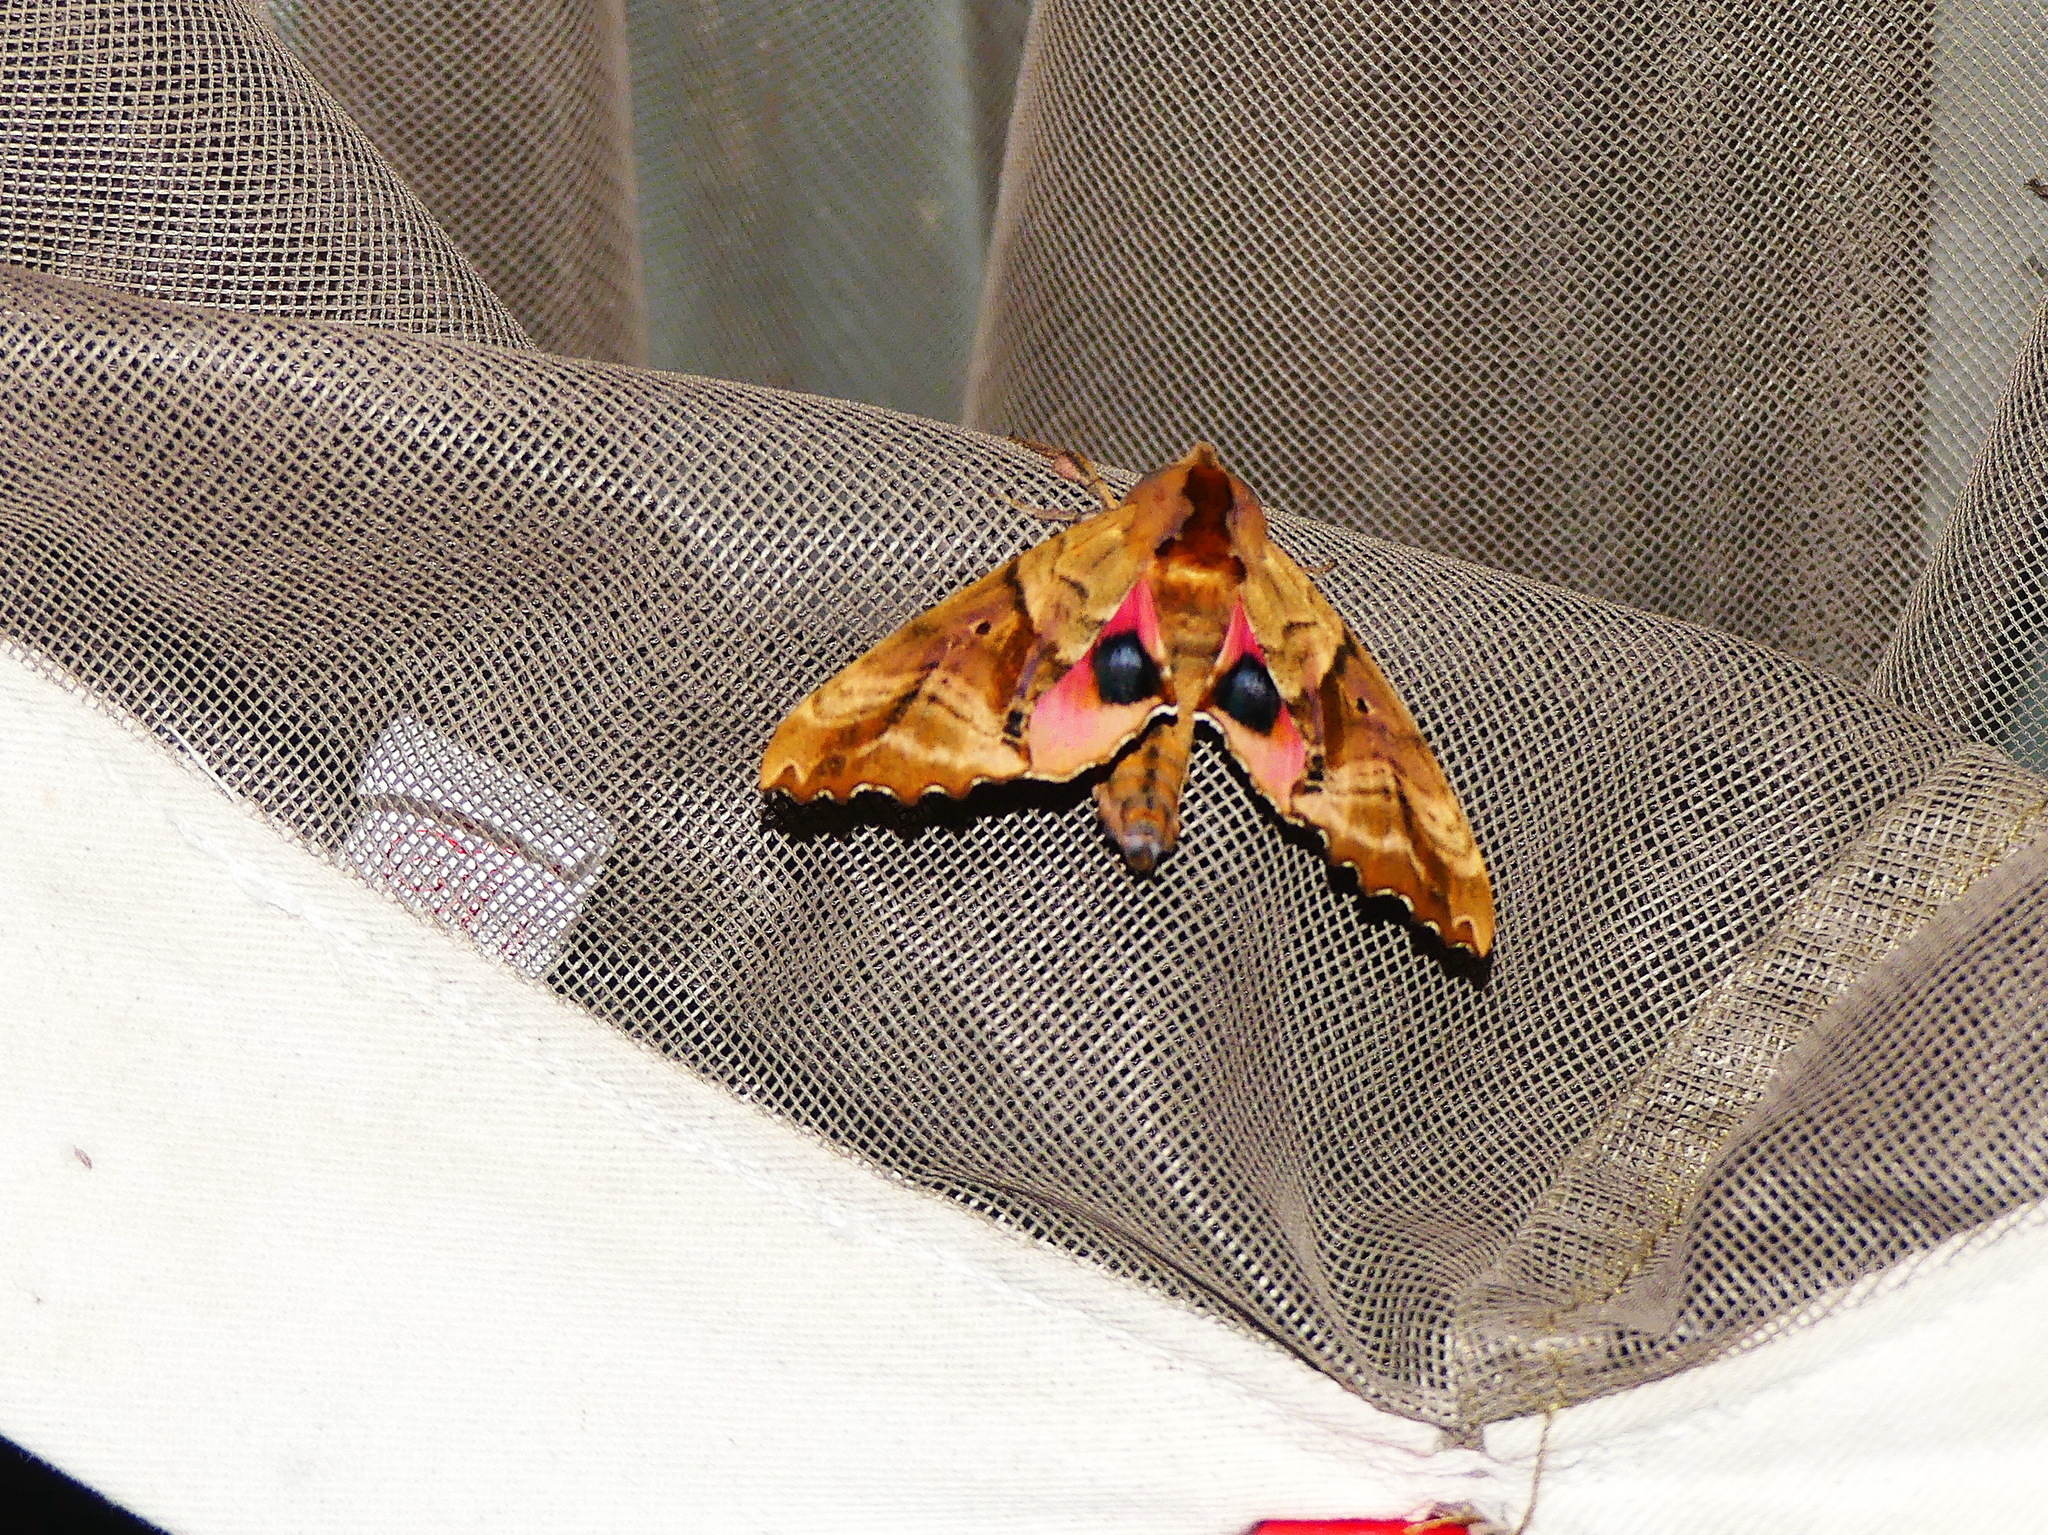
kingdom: Animalia
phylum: Arthropoda
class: Insecta
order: Lepidoptera
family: Sphingidae
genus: Paonias
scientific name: Paonias excaecata
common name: Blind-eyed sphinx
